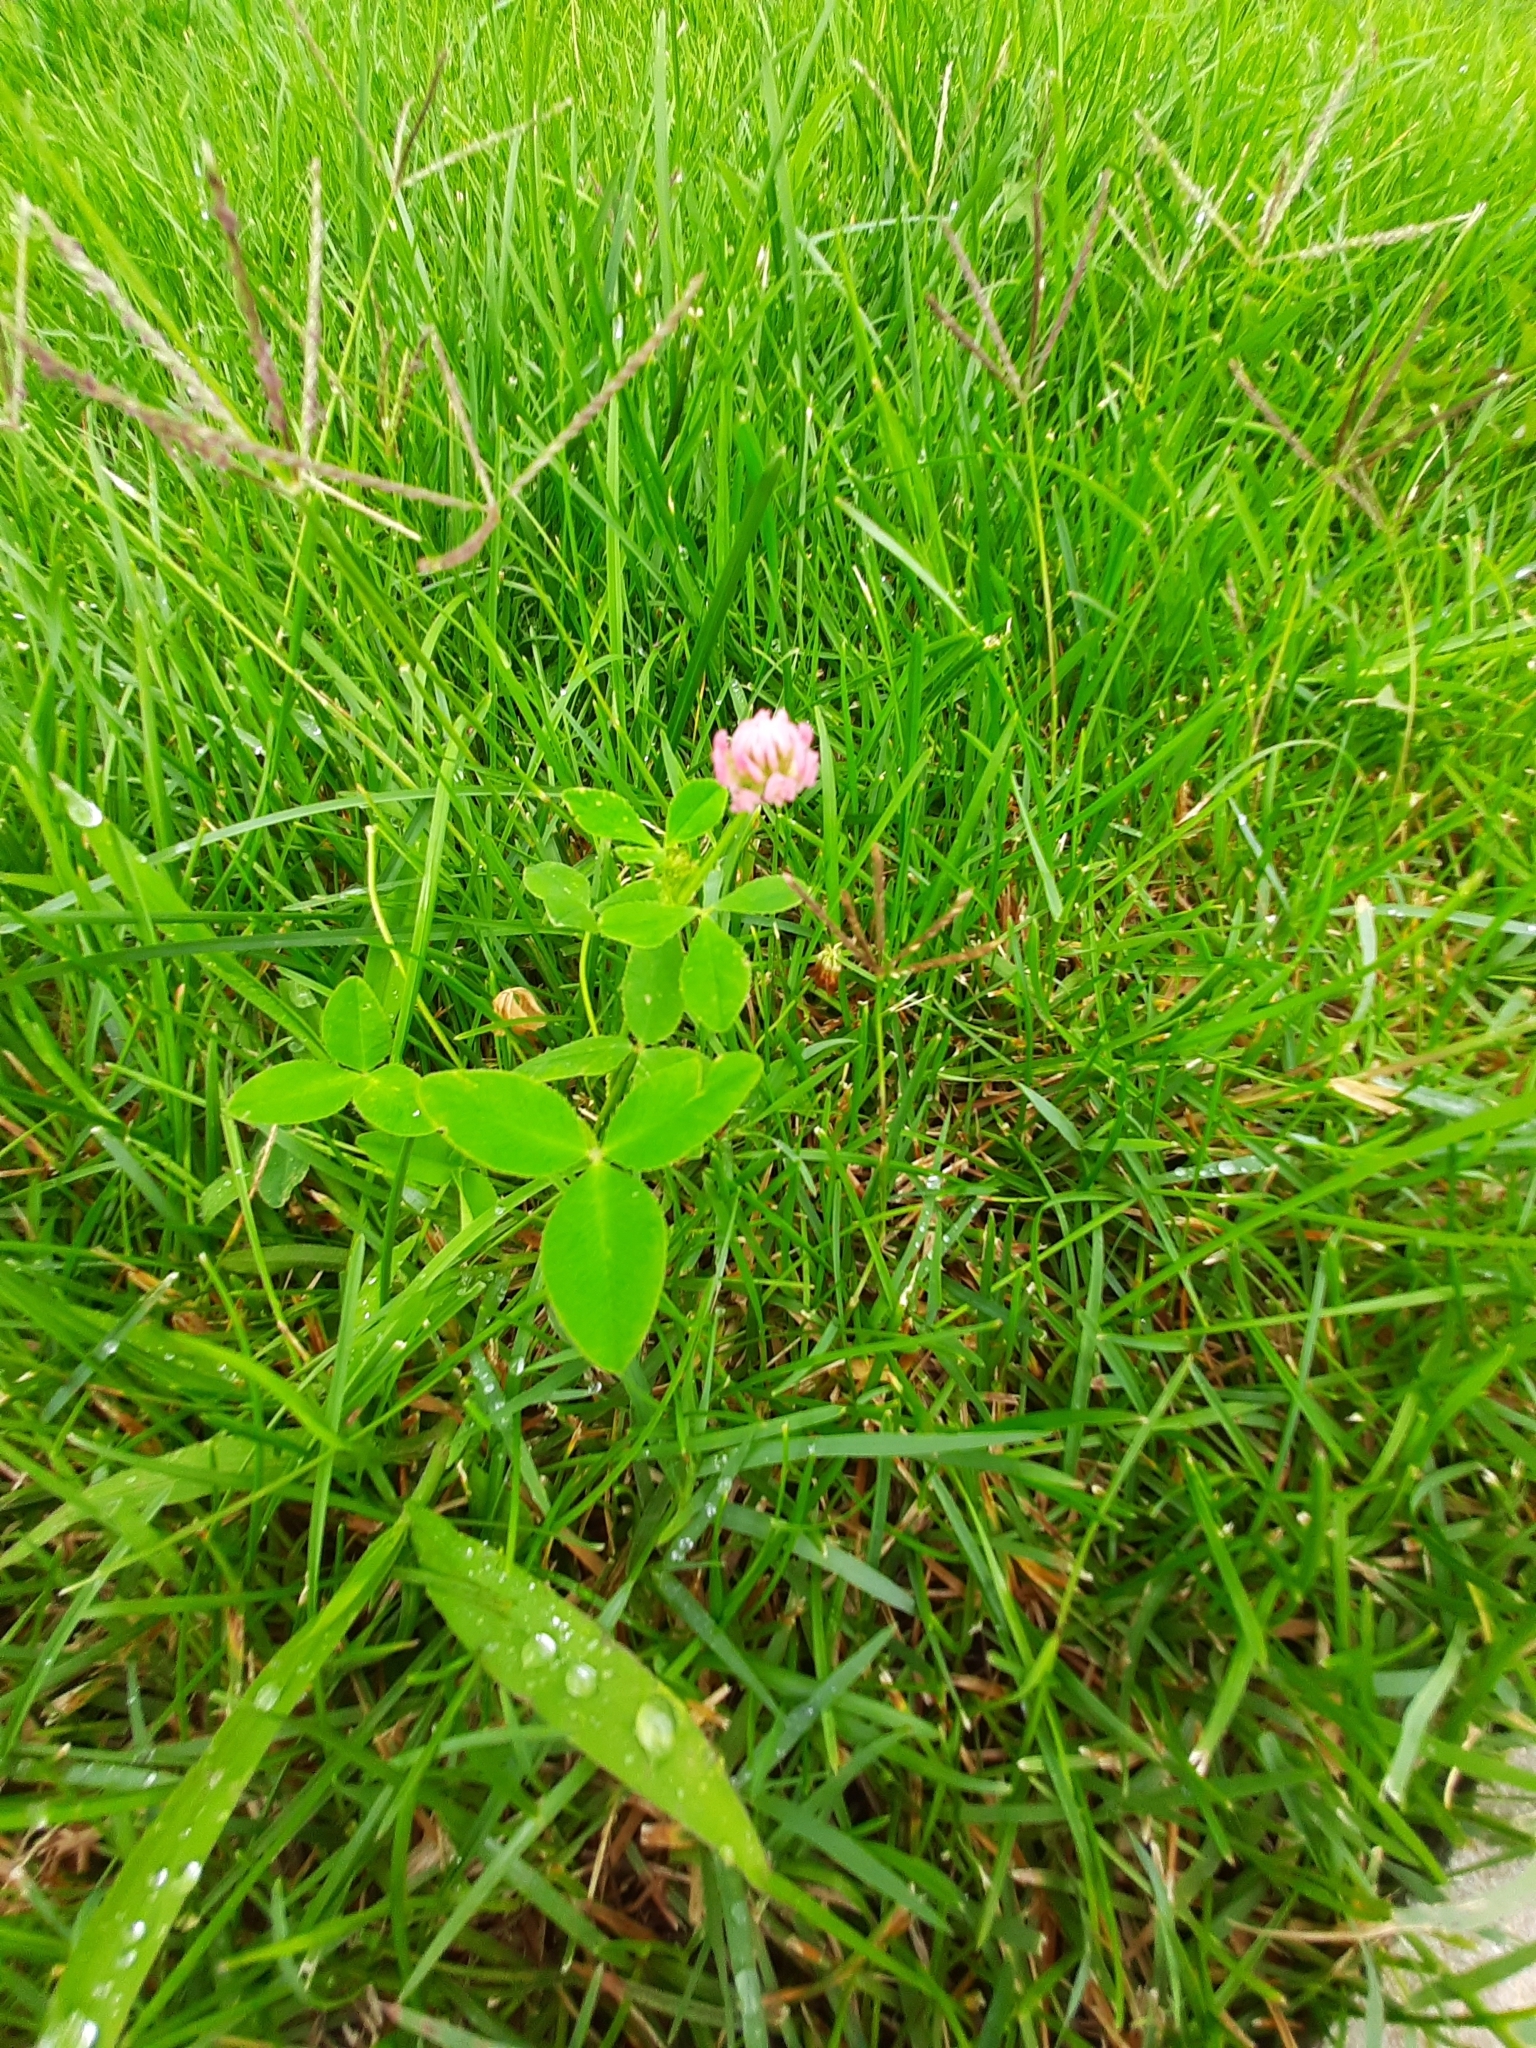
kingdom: Plantae
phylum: Tracheophyta
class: Magnoliopsida
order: Fabales
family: Fabaceae
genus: Trifolium
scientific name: Trifolium hybridum
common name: Alsike clover
